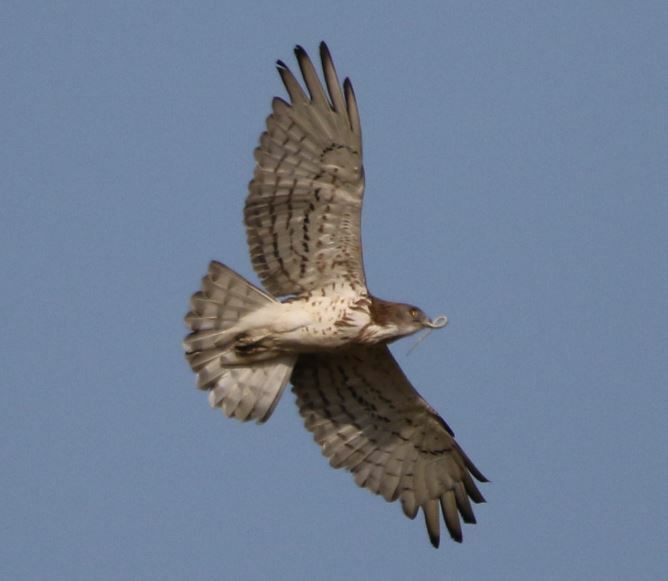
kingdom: Animalia
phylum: Chordata
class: Aves
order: Accipitriformes
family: Accipitridae
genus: Circaetus
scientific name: Circaetus gallicus
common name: Short-toed snake eagle
